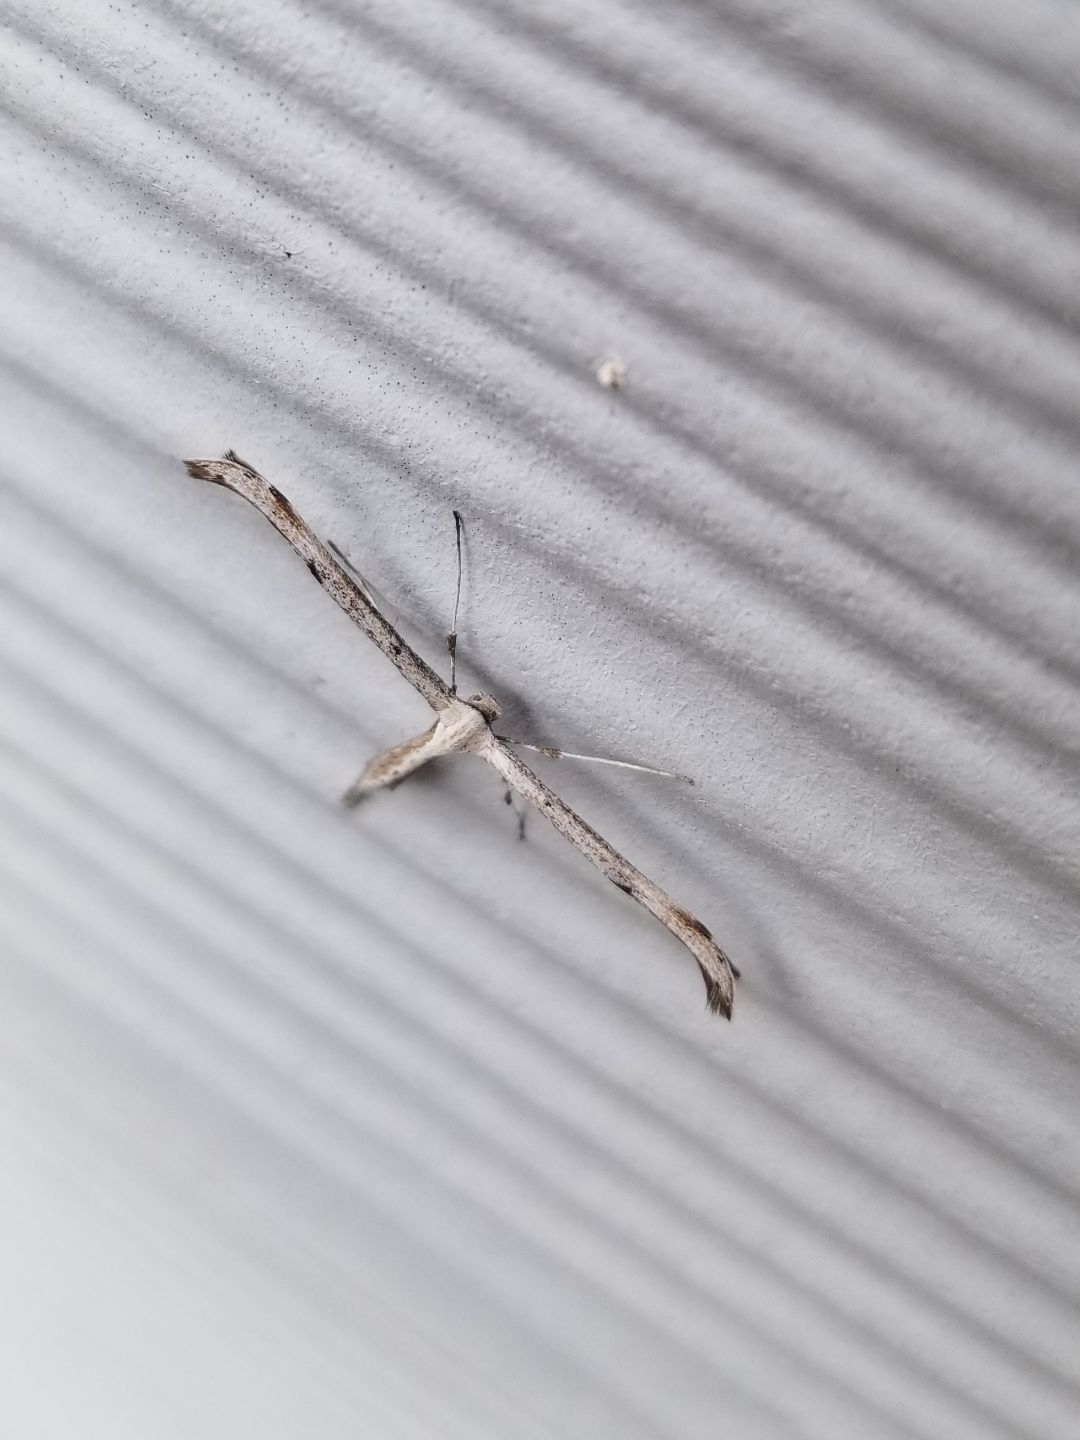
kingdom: Animalia
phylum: Arthropoda
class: Insecta
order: Lepidoptera
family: Pterophoridae
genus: Emmelina
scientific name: Emmelina monodactyla
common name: Common plume
